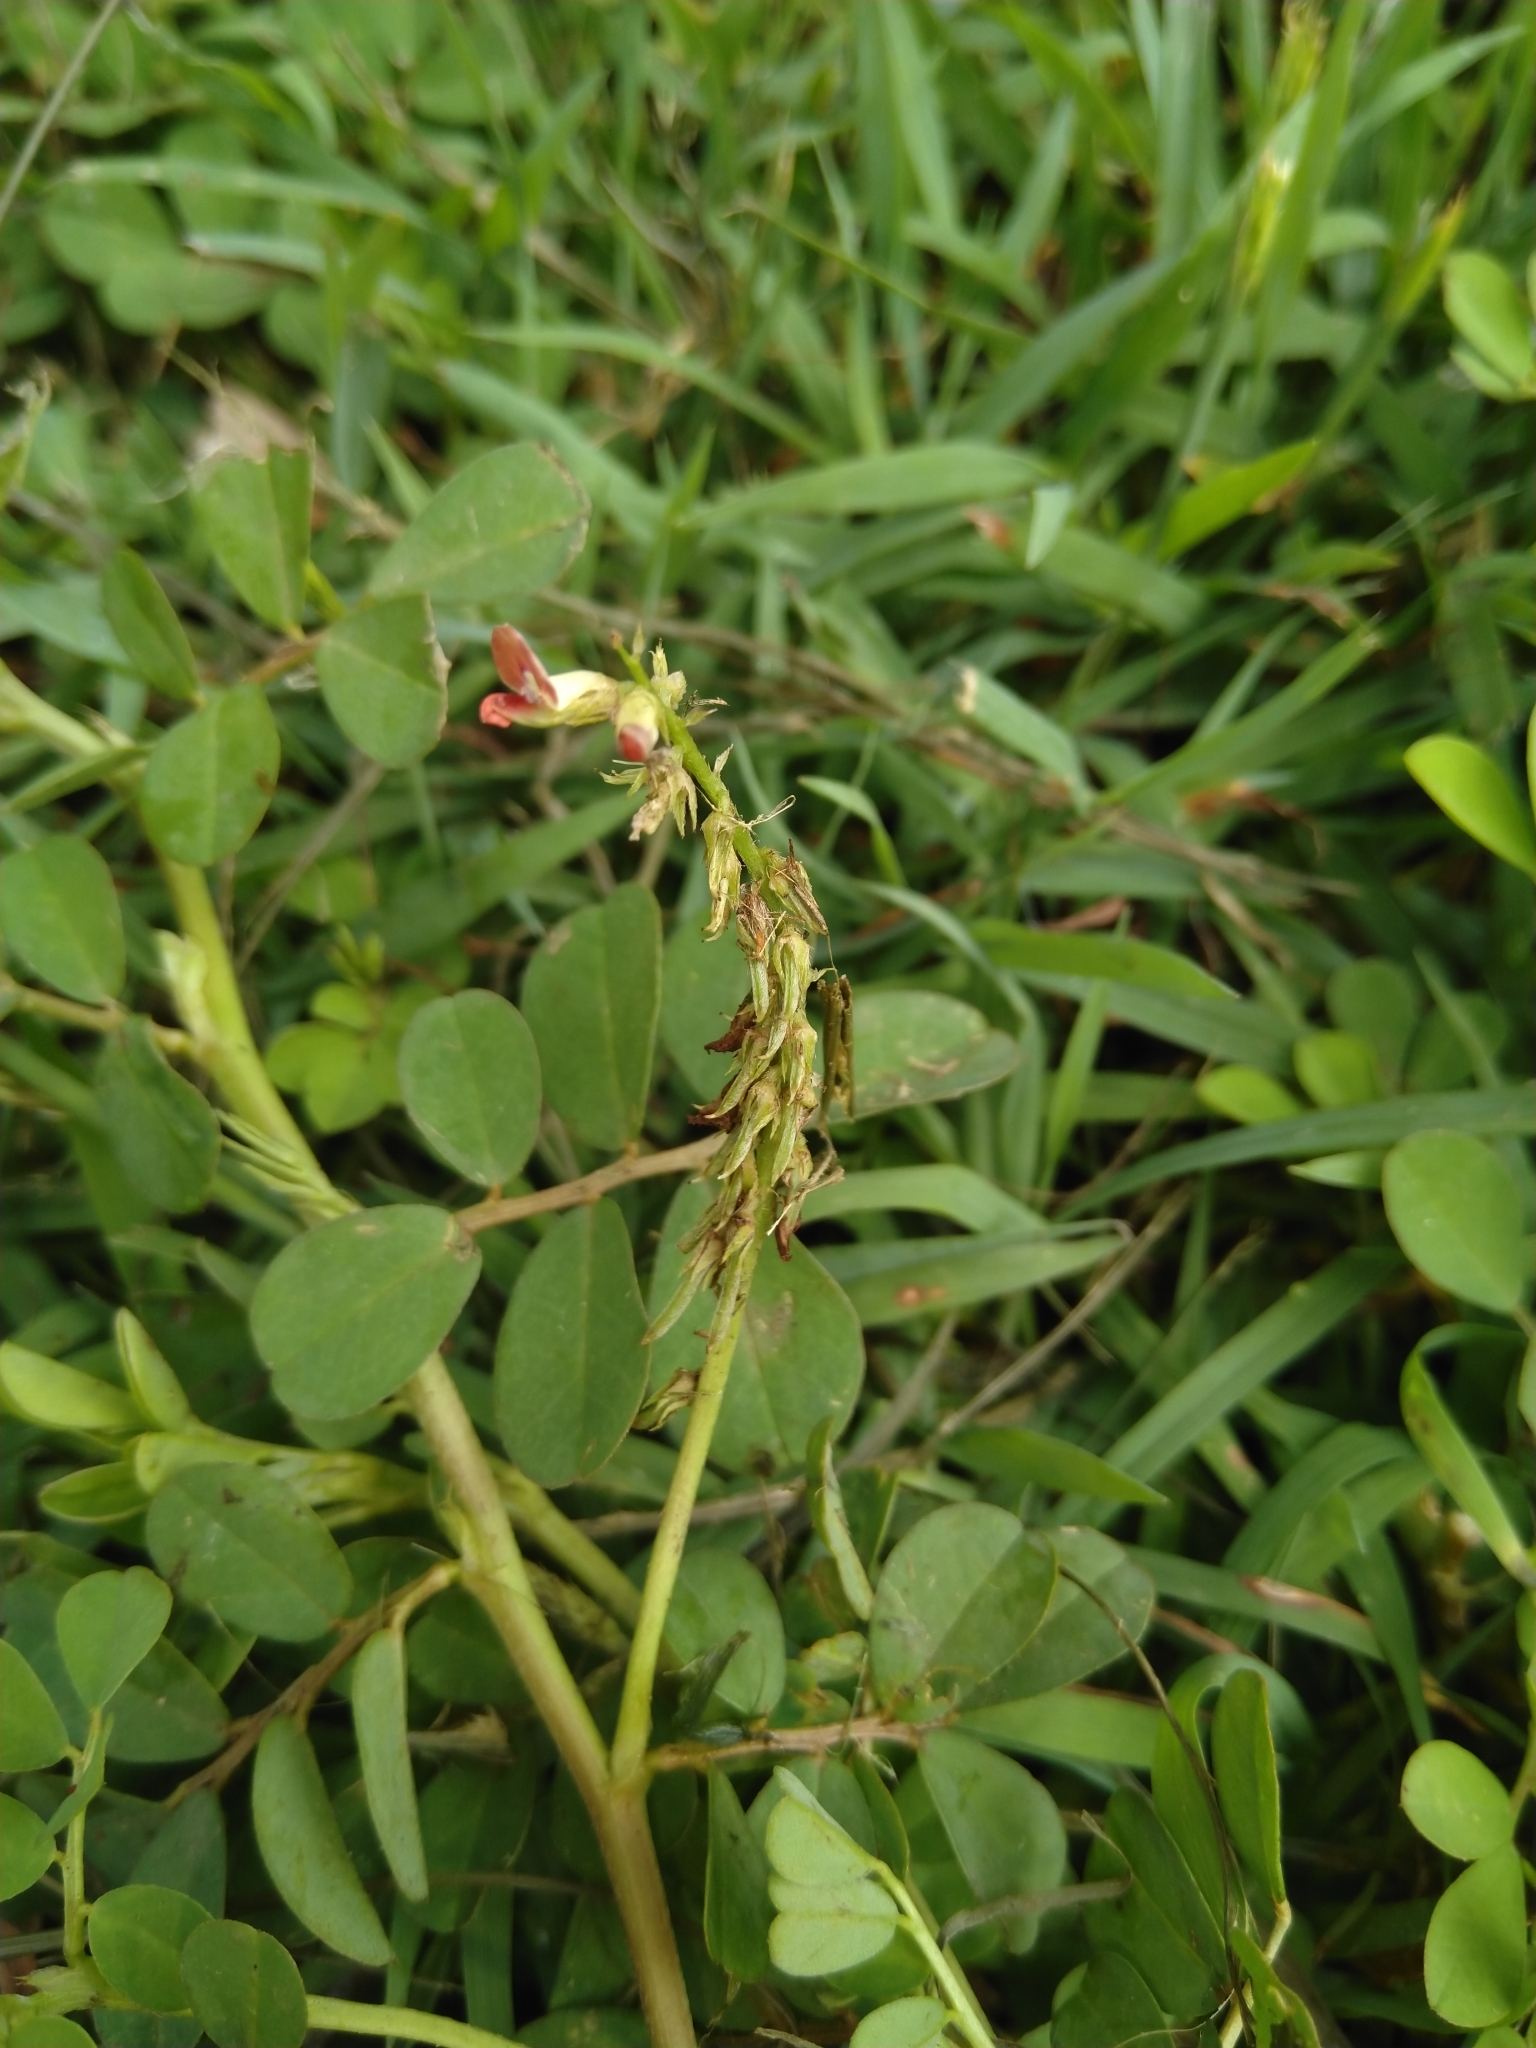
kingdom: Plantae
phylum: Tracheophyta
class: Magnoliopsida
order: Fabales
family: Fabaceae
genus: Indigofera
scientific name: Indigofera spicata
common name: Creeping indigo
